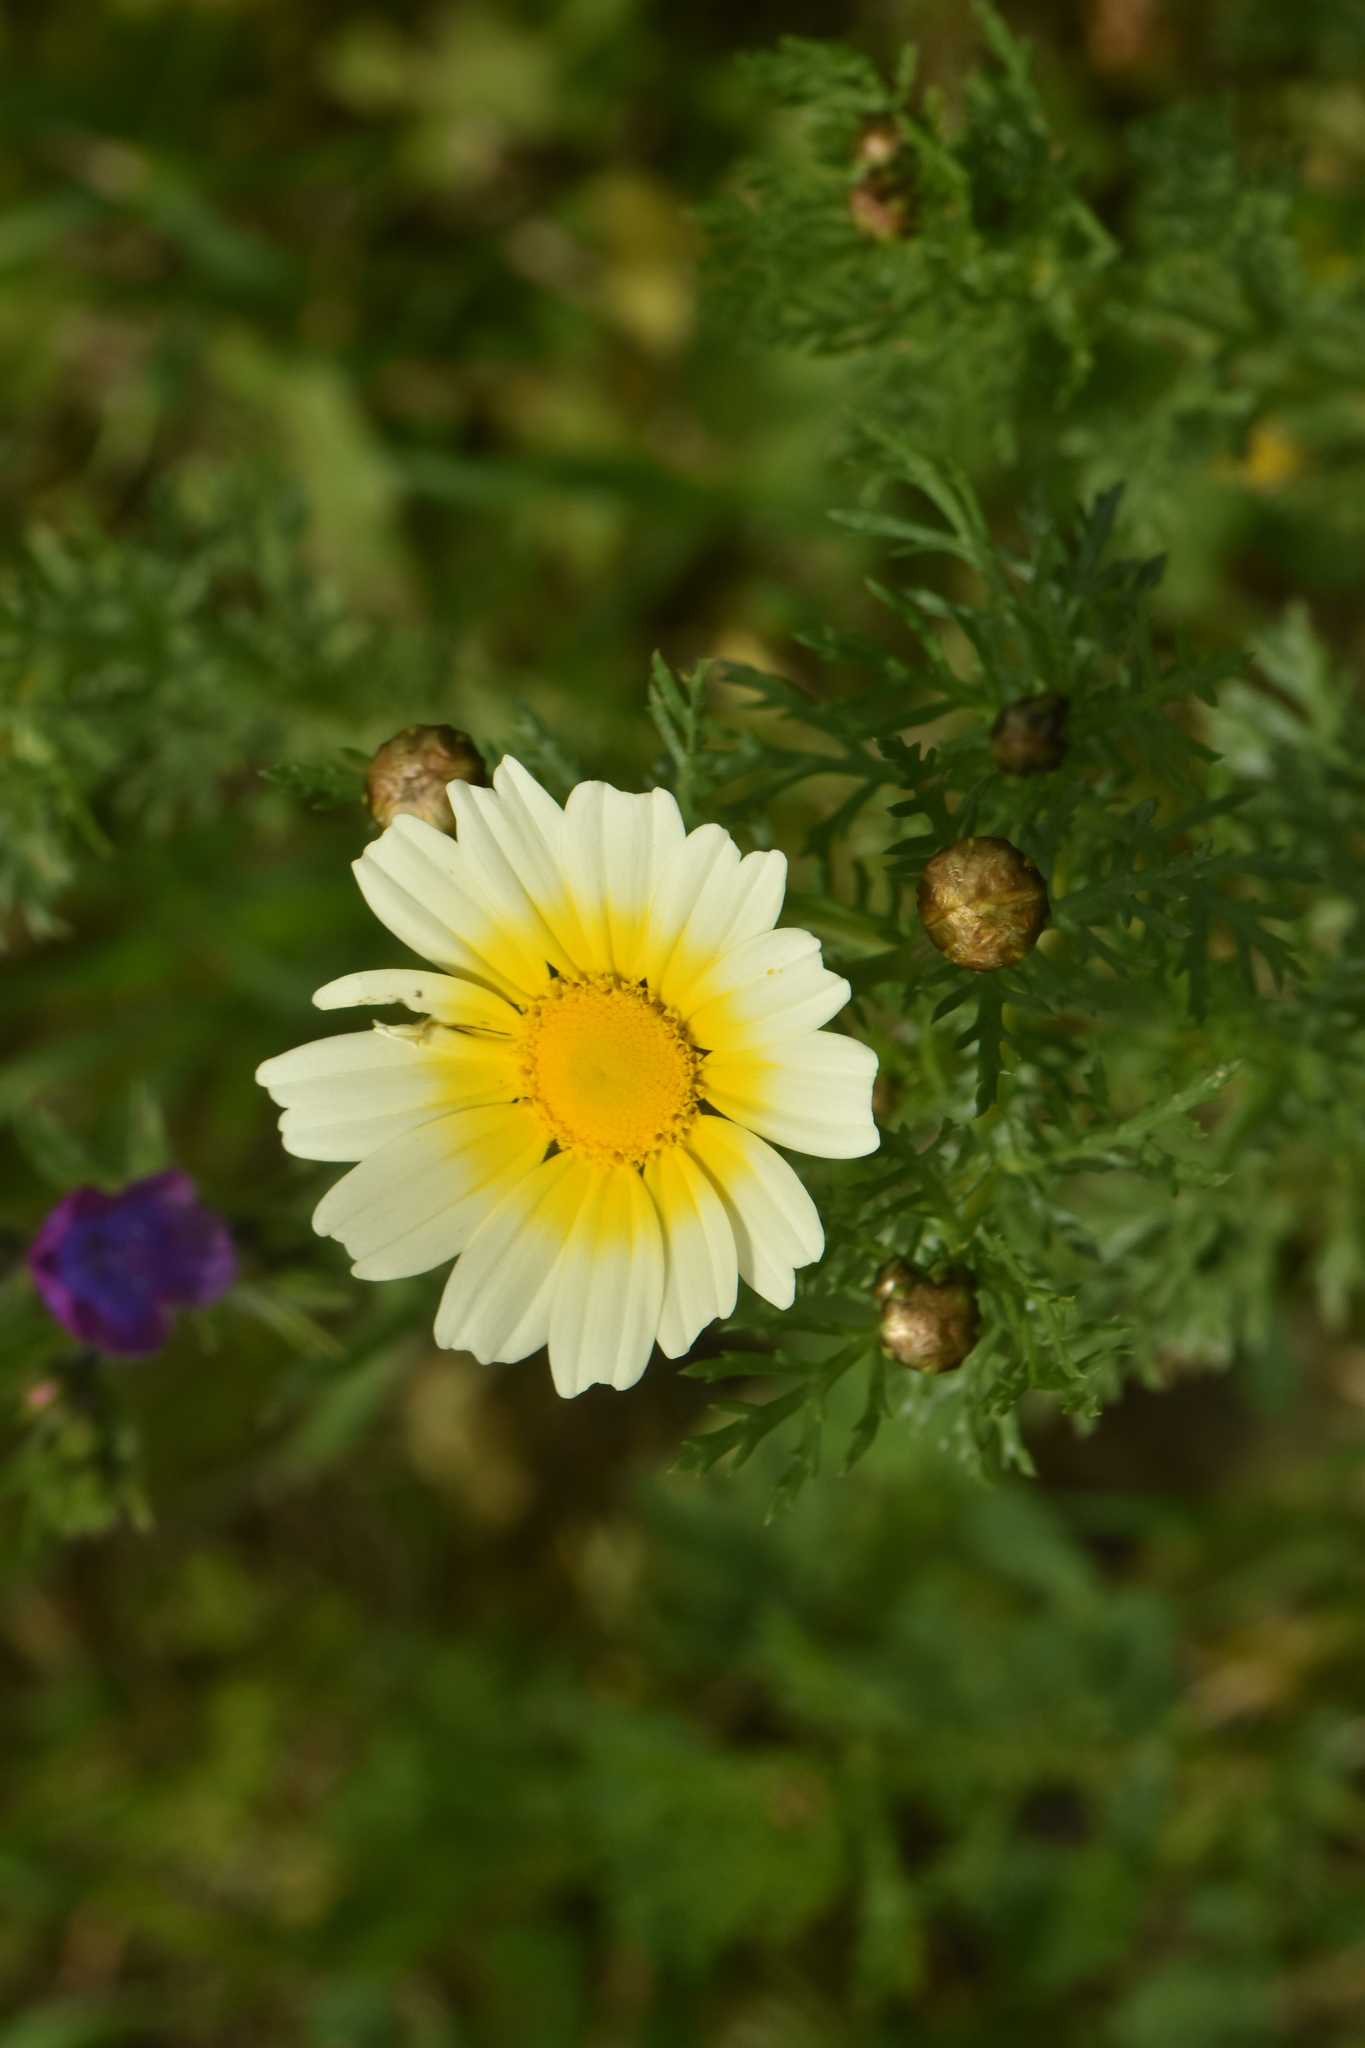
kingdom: Plantae
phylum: Tracheophyta
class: Magnoliopsida
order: Asterales
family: Asteraceae
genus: Glebionis
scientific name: Glebionis coronaria
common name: Crowndaisy
